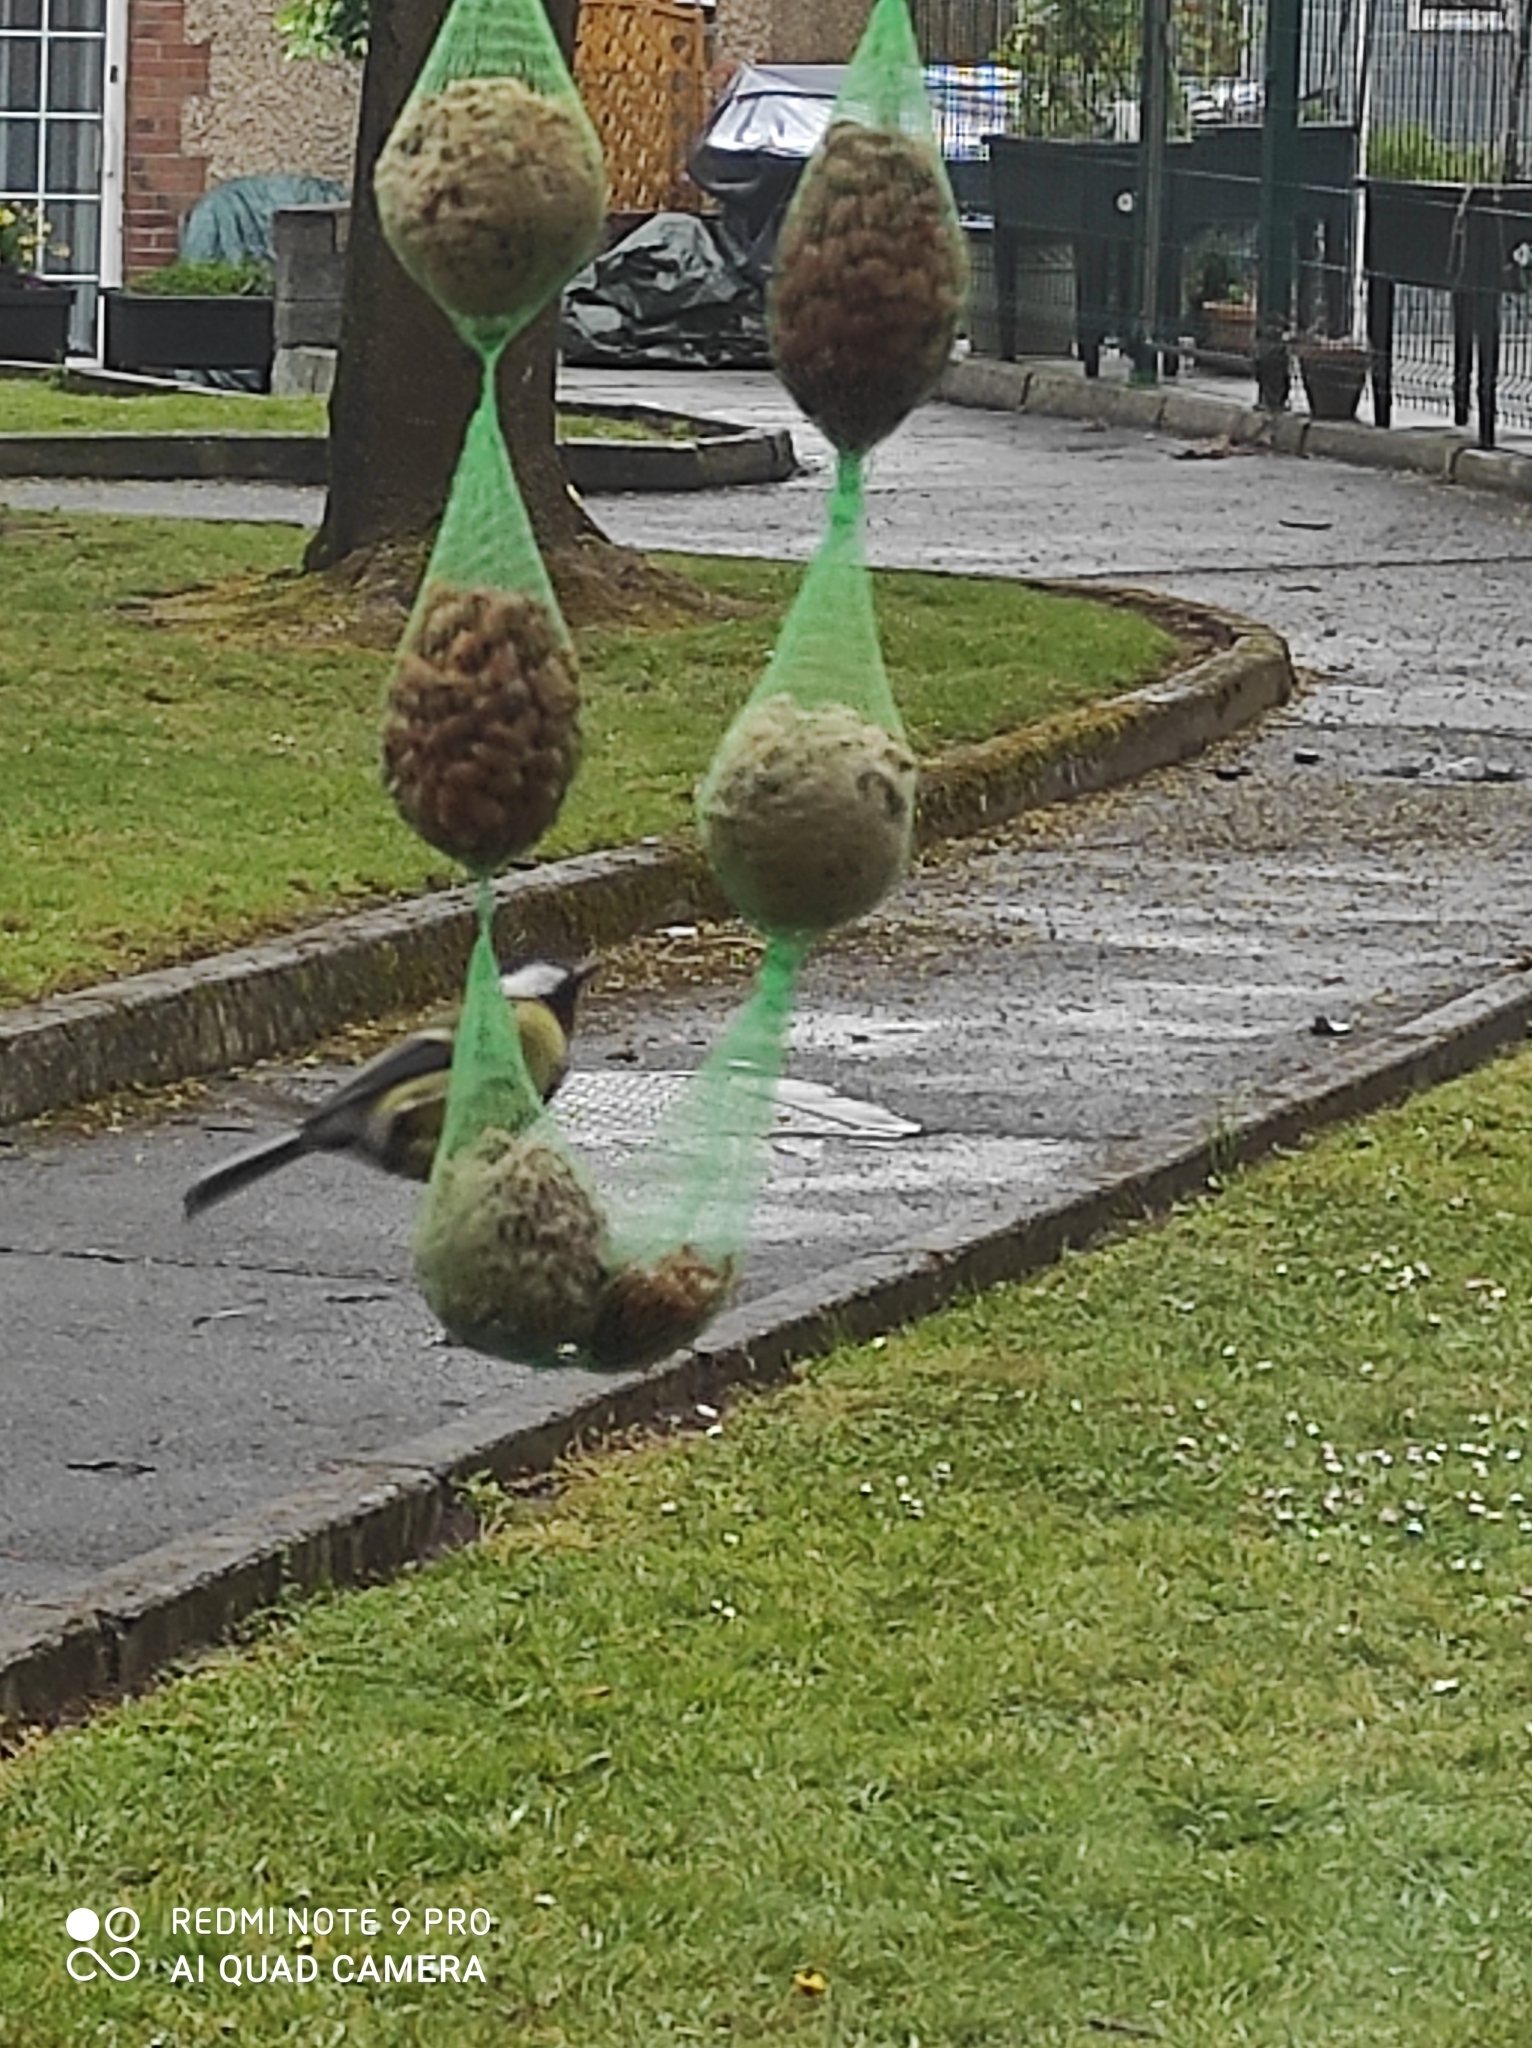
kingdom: Animalia
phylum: Chordata
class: Aves
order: Passeriformes
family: Paridae
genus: Parus
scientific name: Parus major
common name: Great tit
